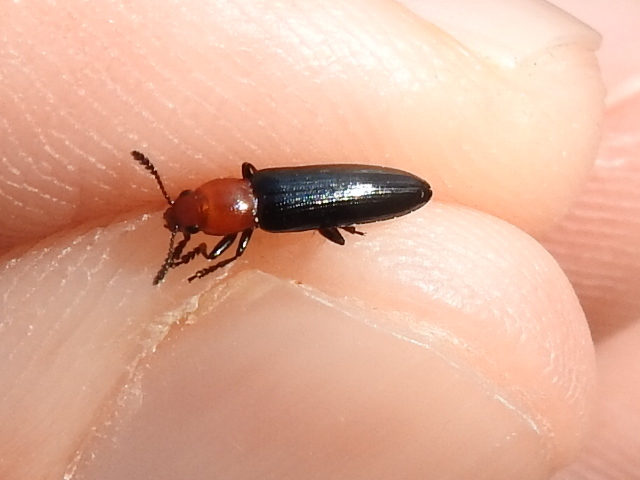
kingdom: Animalia
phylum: Arthropoda
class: Insecta
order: Coleoptera
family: Erotylidae
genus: Languria
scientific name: Languria mozardi
